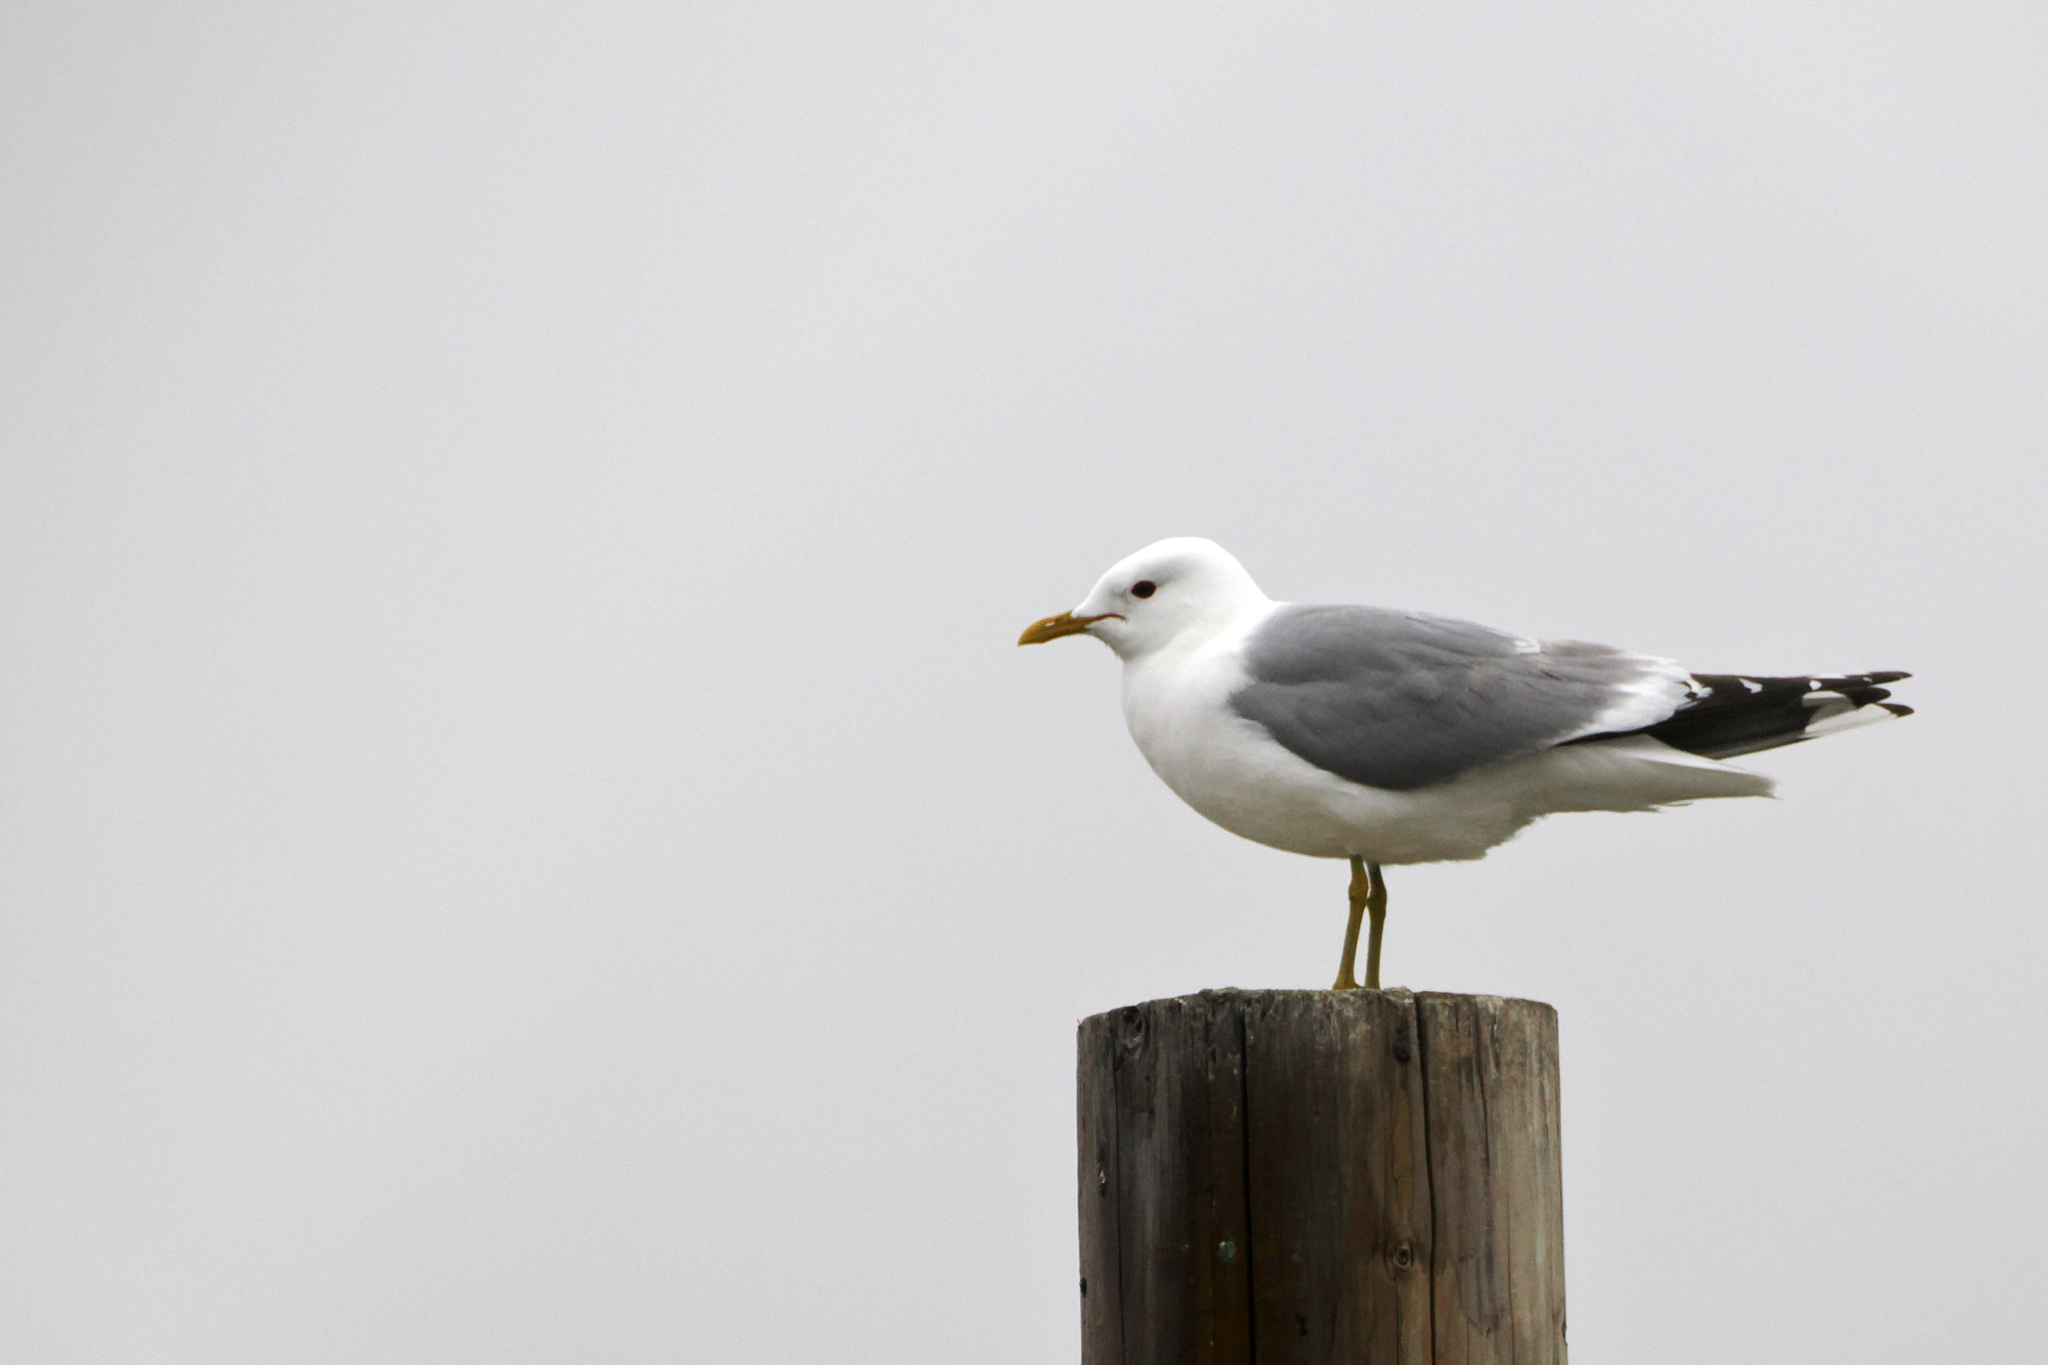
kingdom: Animalia
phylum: Chordata
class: Aves
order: Charadriiformes
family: Laridae
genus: Larus
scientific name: Larus brachyrhynchus
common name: Short-billed gull
